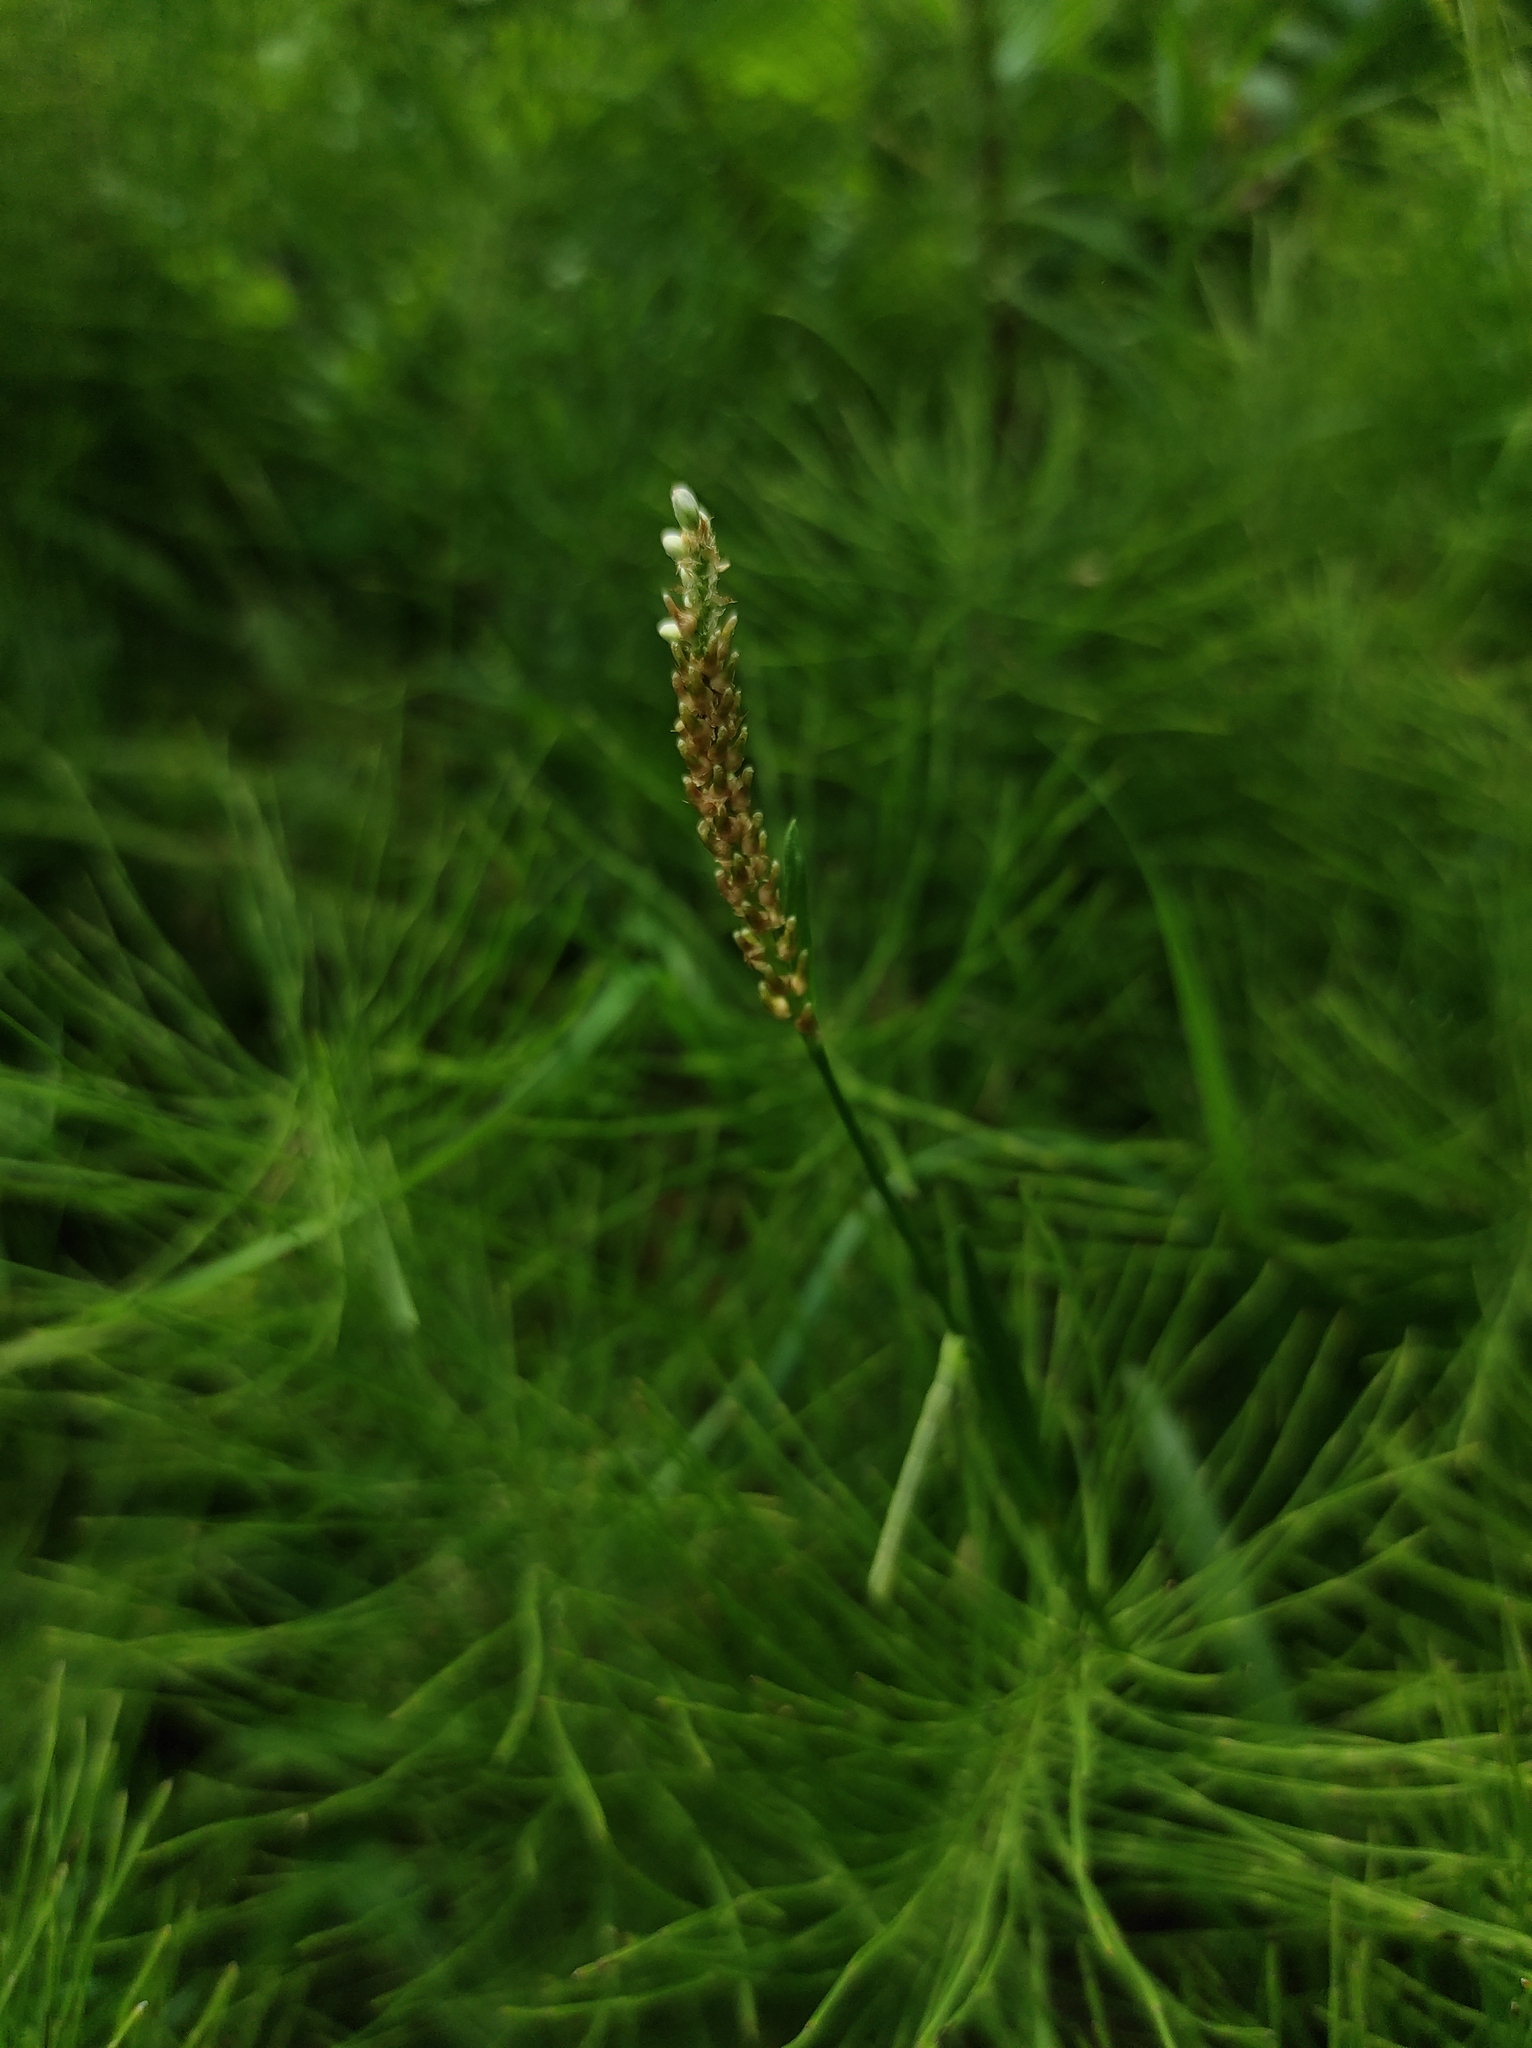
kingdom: Plantae
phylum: Tracheophyta
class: Magnoliopsida
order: Caryophyllales
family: Polygonaceae
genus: Bistorta
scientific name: Bistorta vivipara
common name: Alpine bistort
